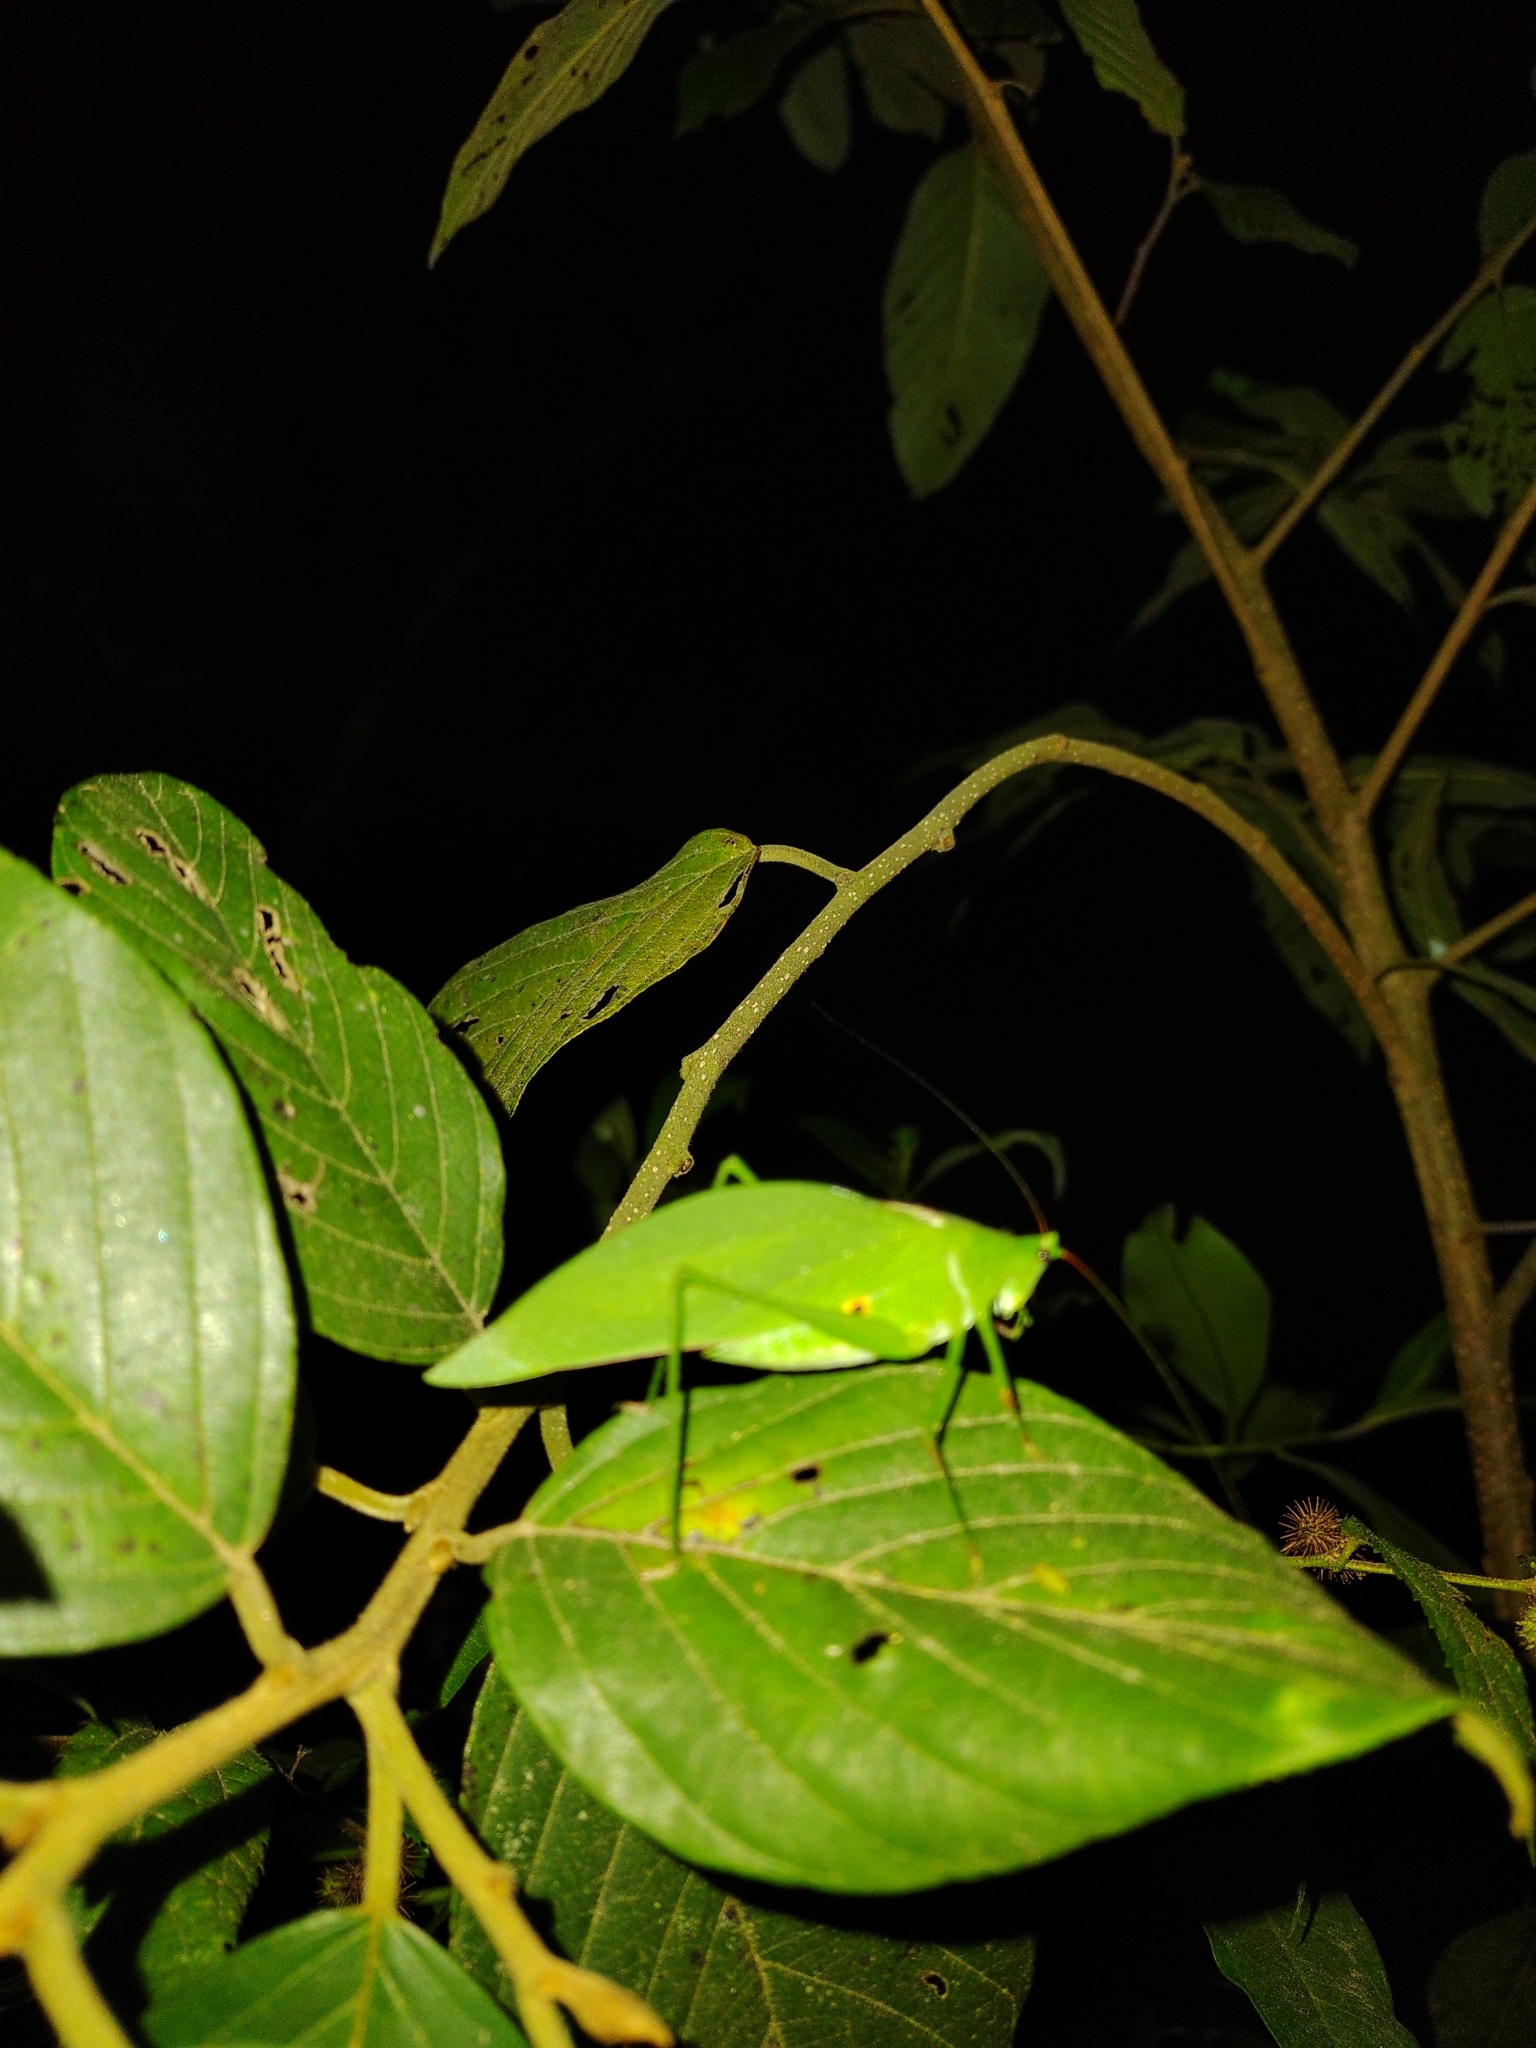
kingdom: Animalia
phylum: Arthropoda
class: Insecta
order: Orthoptera
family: Tettigoniidae
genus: Petaloptera
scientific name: Petaloptera zendala
